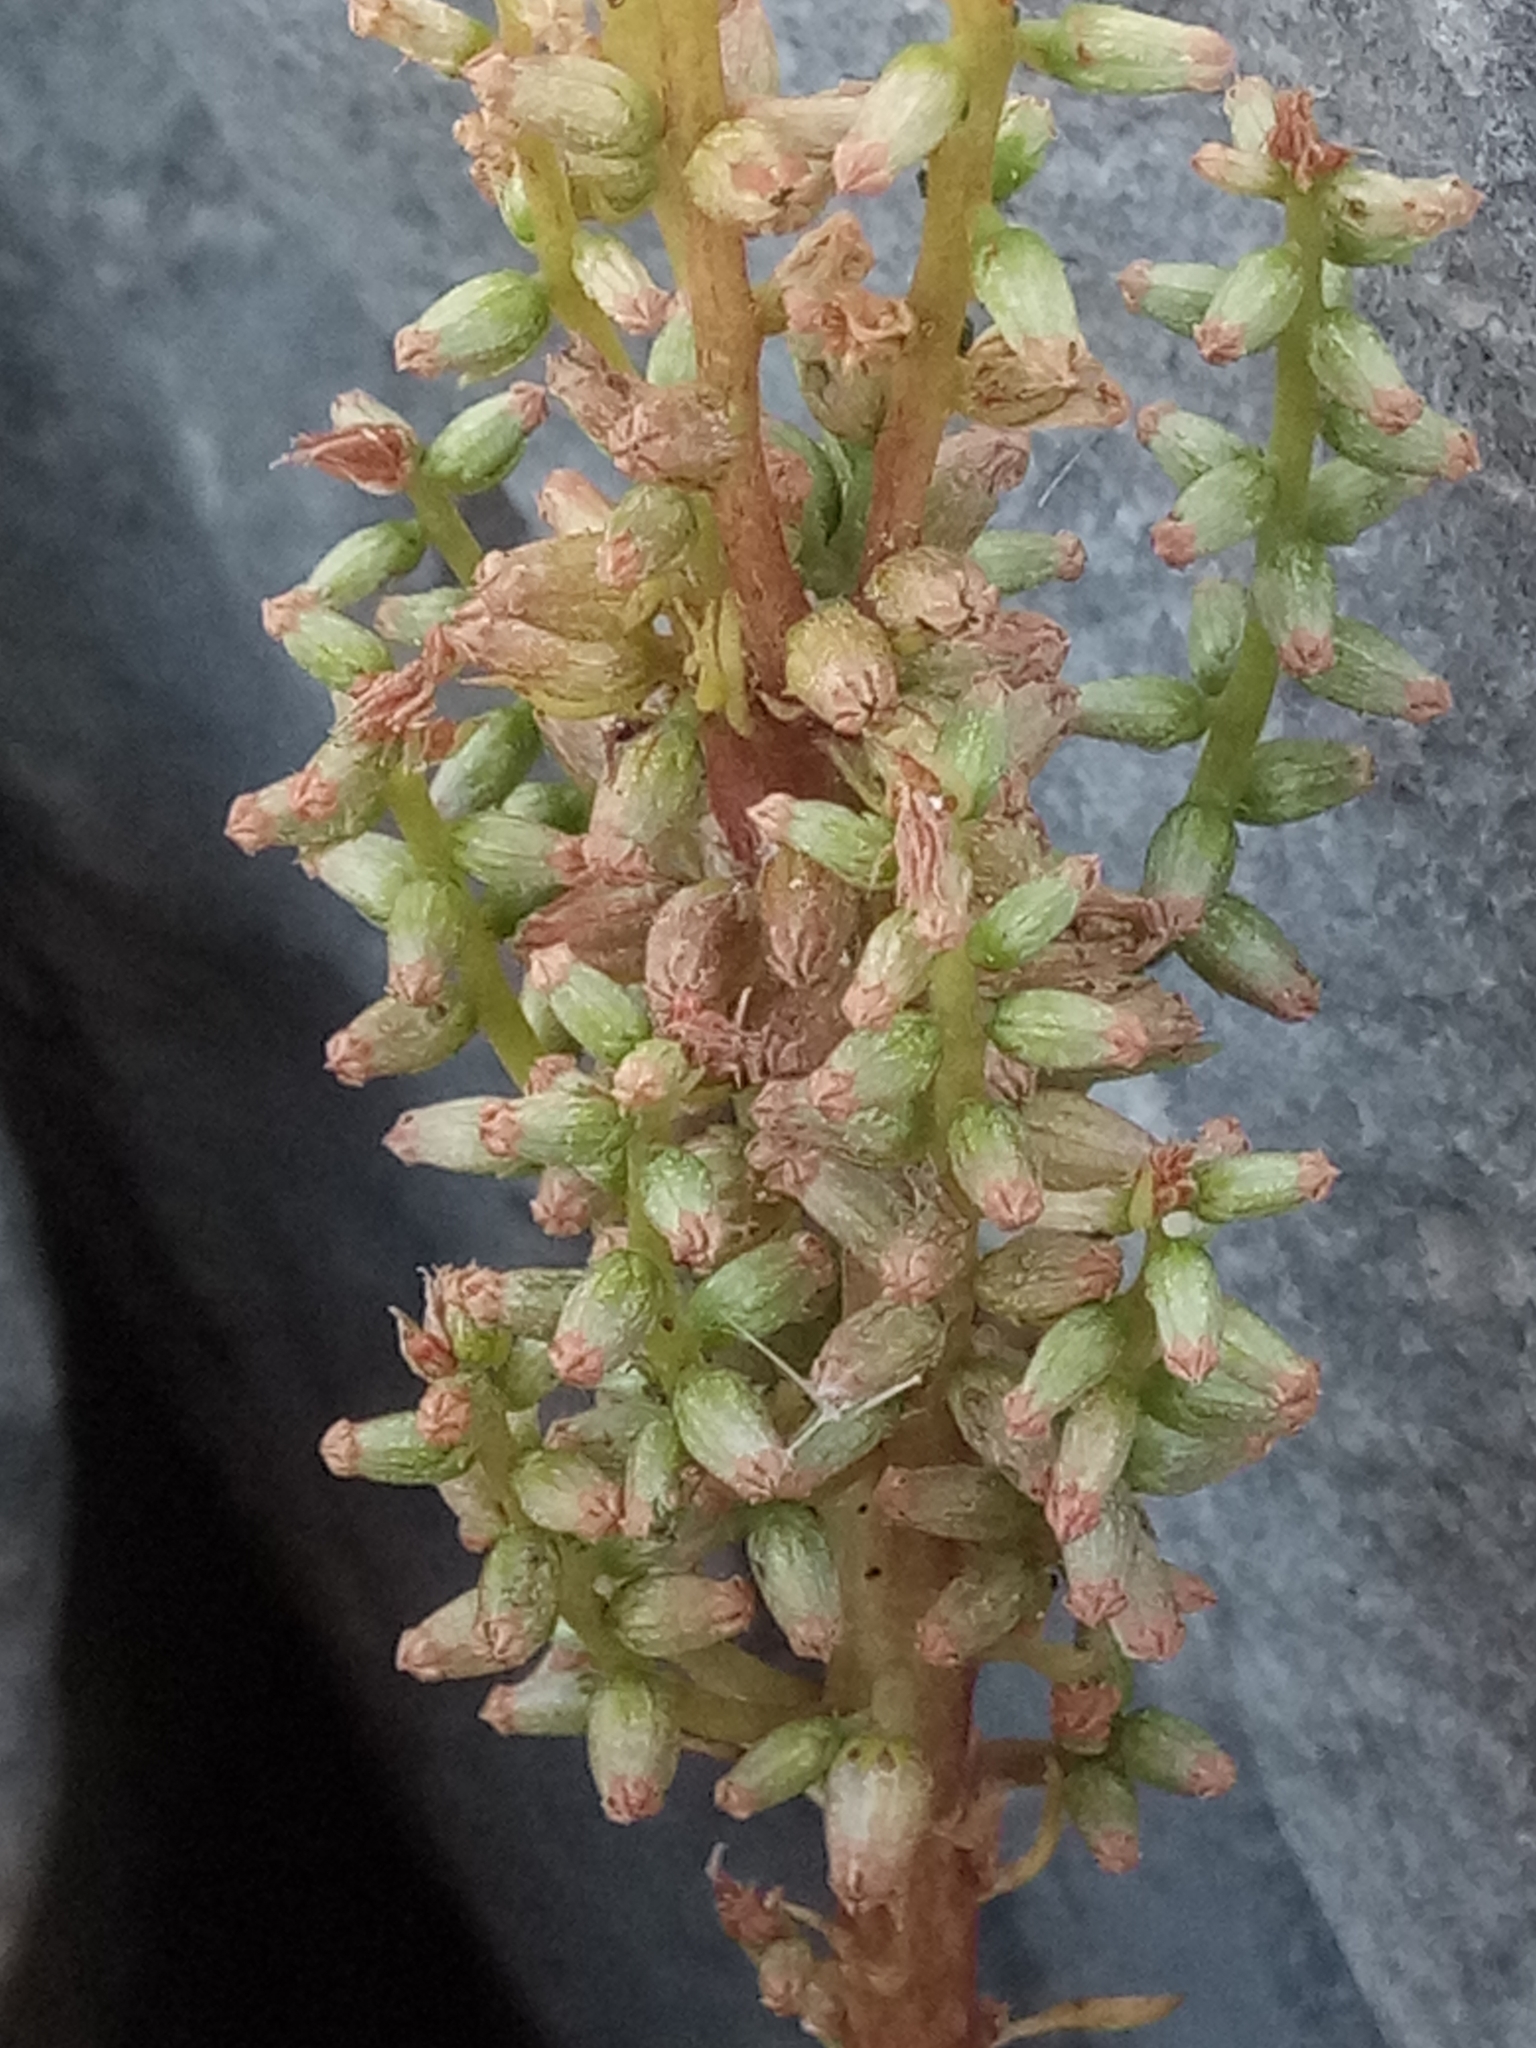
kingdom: Plantae
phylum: Tracheophyta
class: Magnoliopsida
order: Saxifragales
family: Crassulaceae
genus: Umbilicus
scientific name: Umbilicus horizontalis
